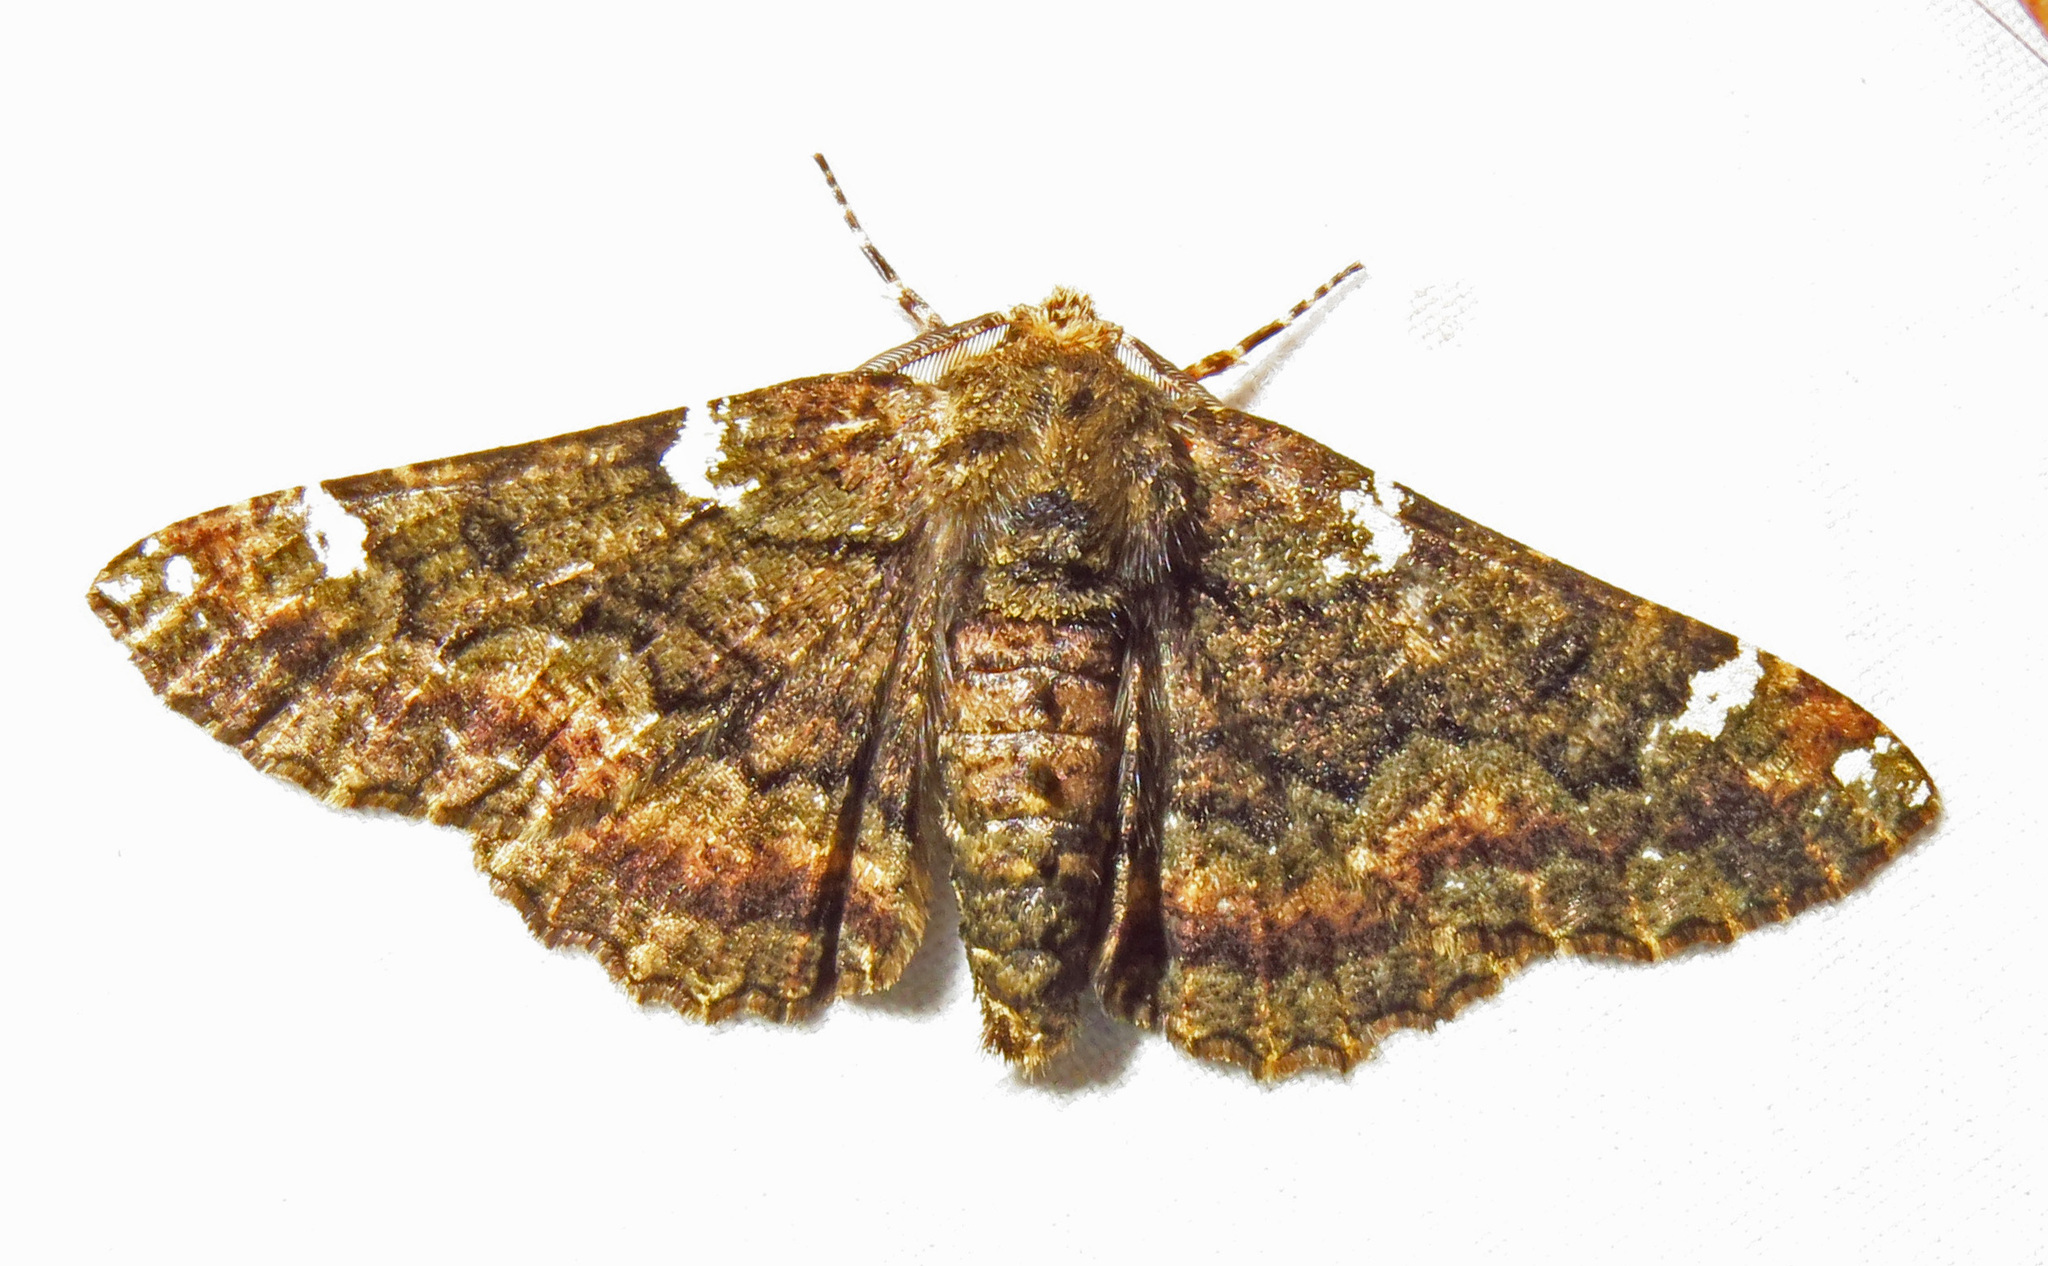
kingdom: Animalia
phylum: Arthropoda
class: Insecta
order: Lepidoptera
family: Geometridae
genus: Phaeoura
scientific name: Phaeoura quernaria
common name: Oak beauty
